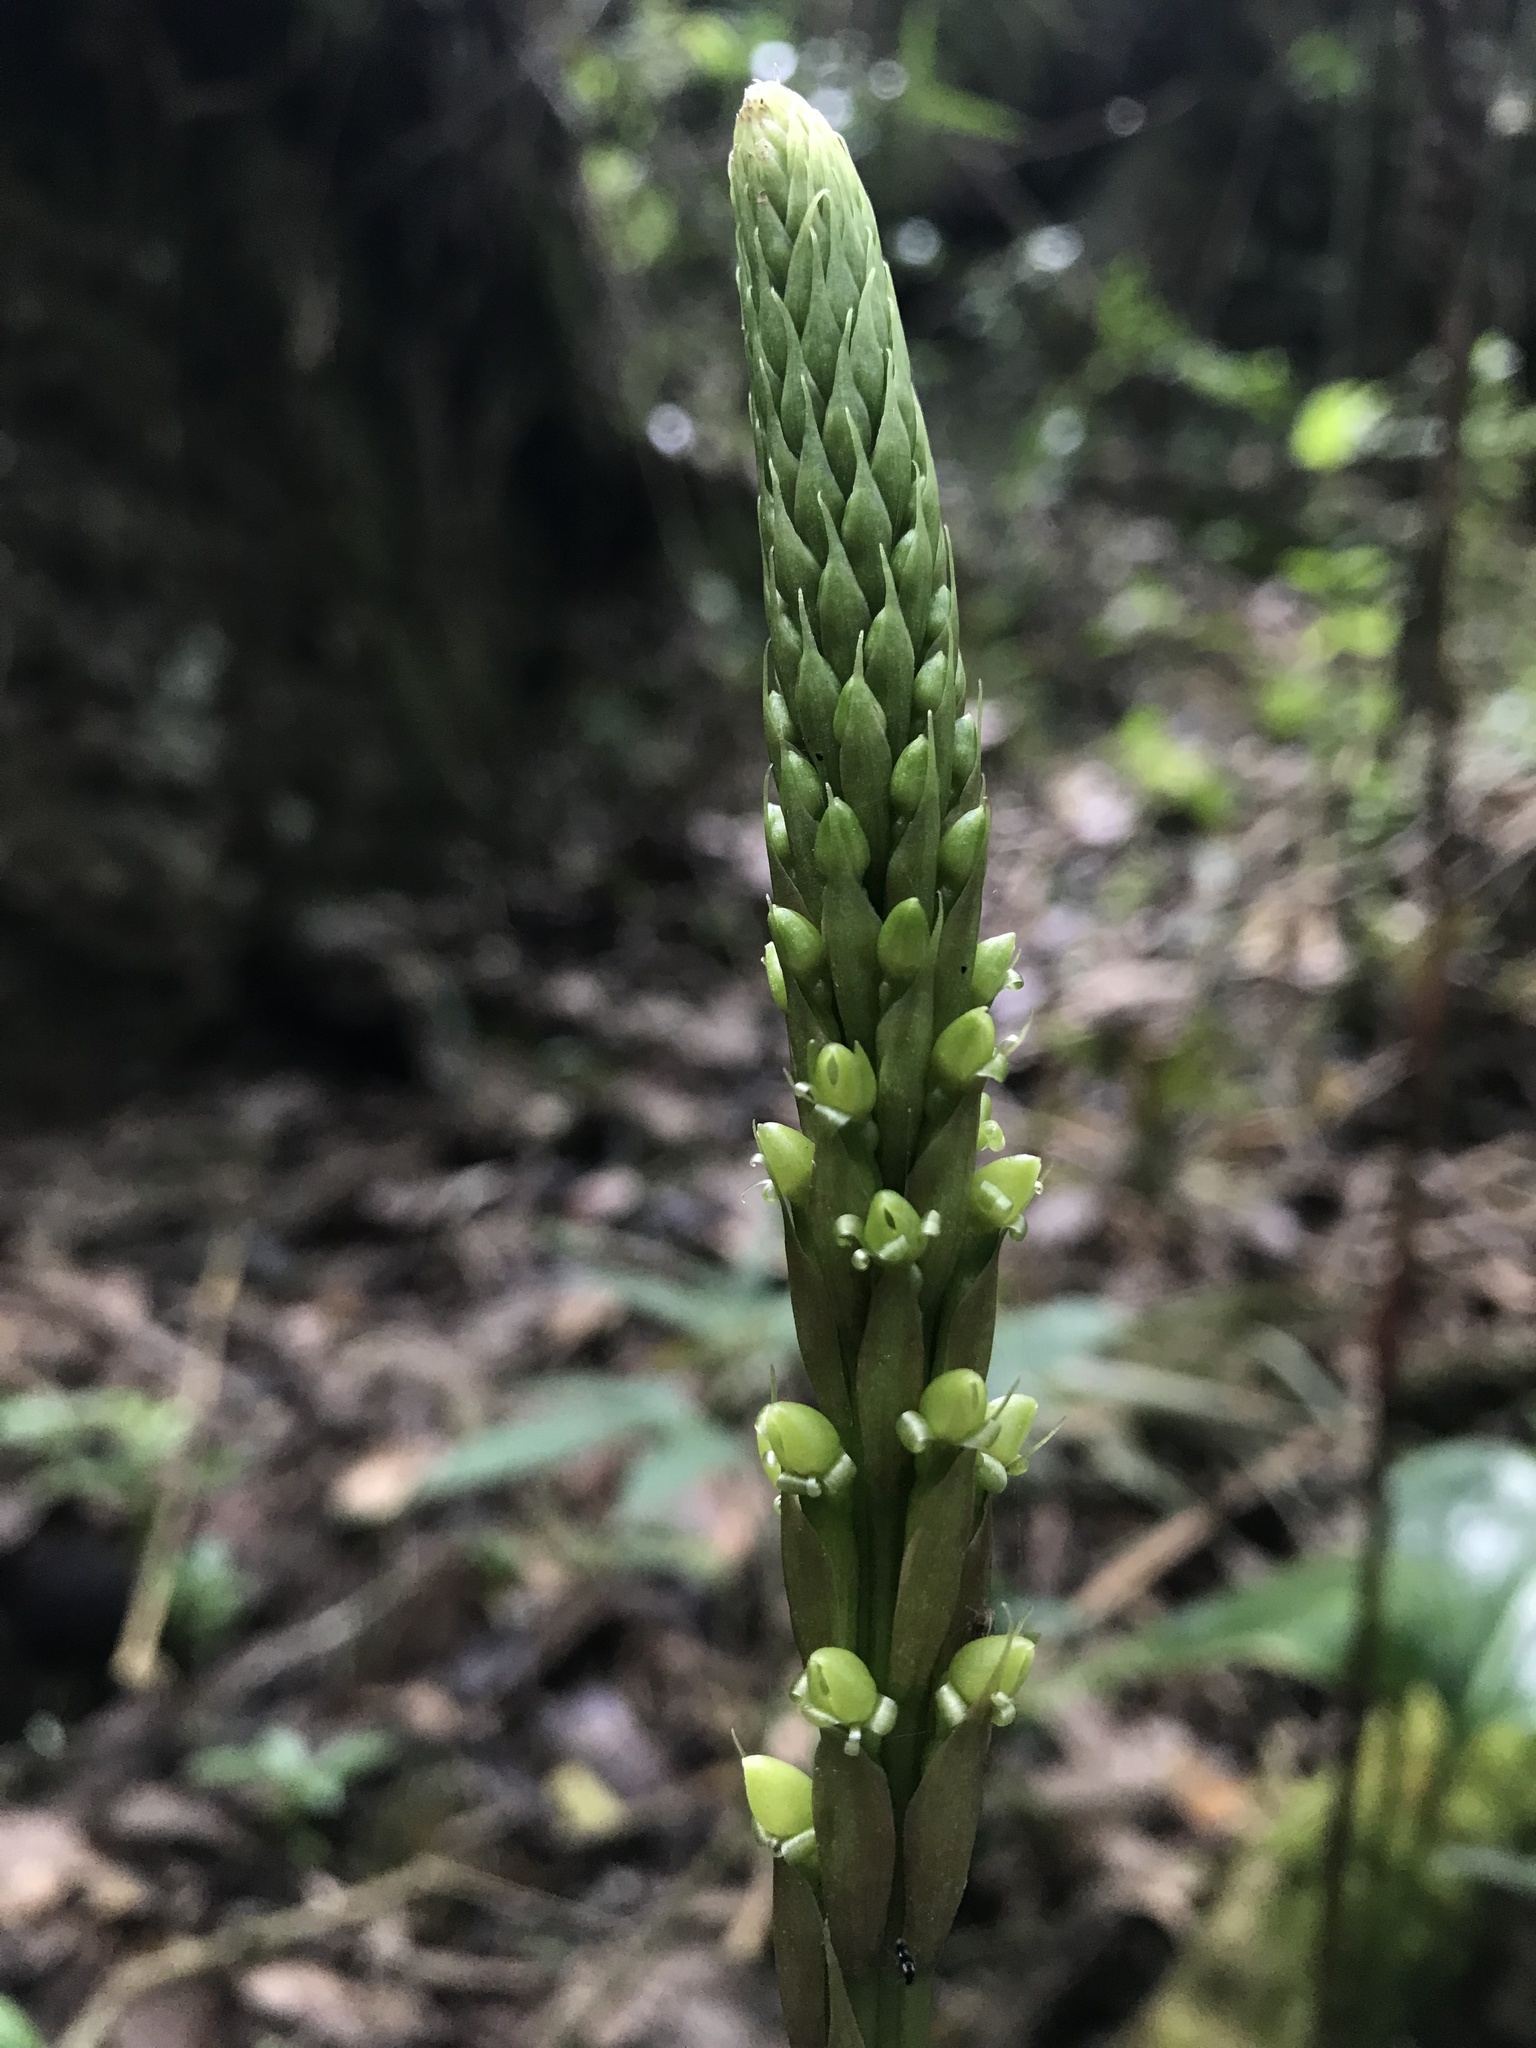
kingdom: Plantae
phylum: Tracheophyta
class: Liliopsida
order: Asparagales
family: Orchidaceae
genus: Prescottia
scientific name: Prescottia stachyodes
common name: Mountain prescott orchid
